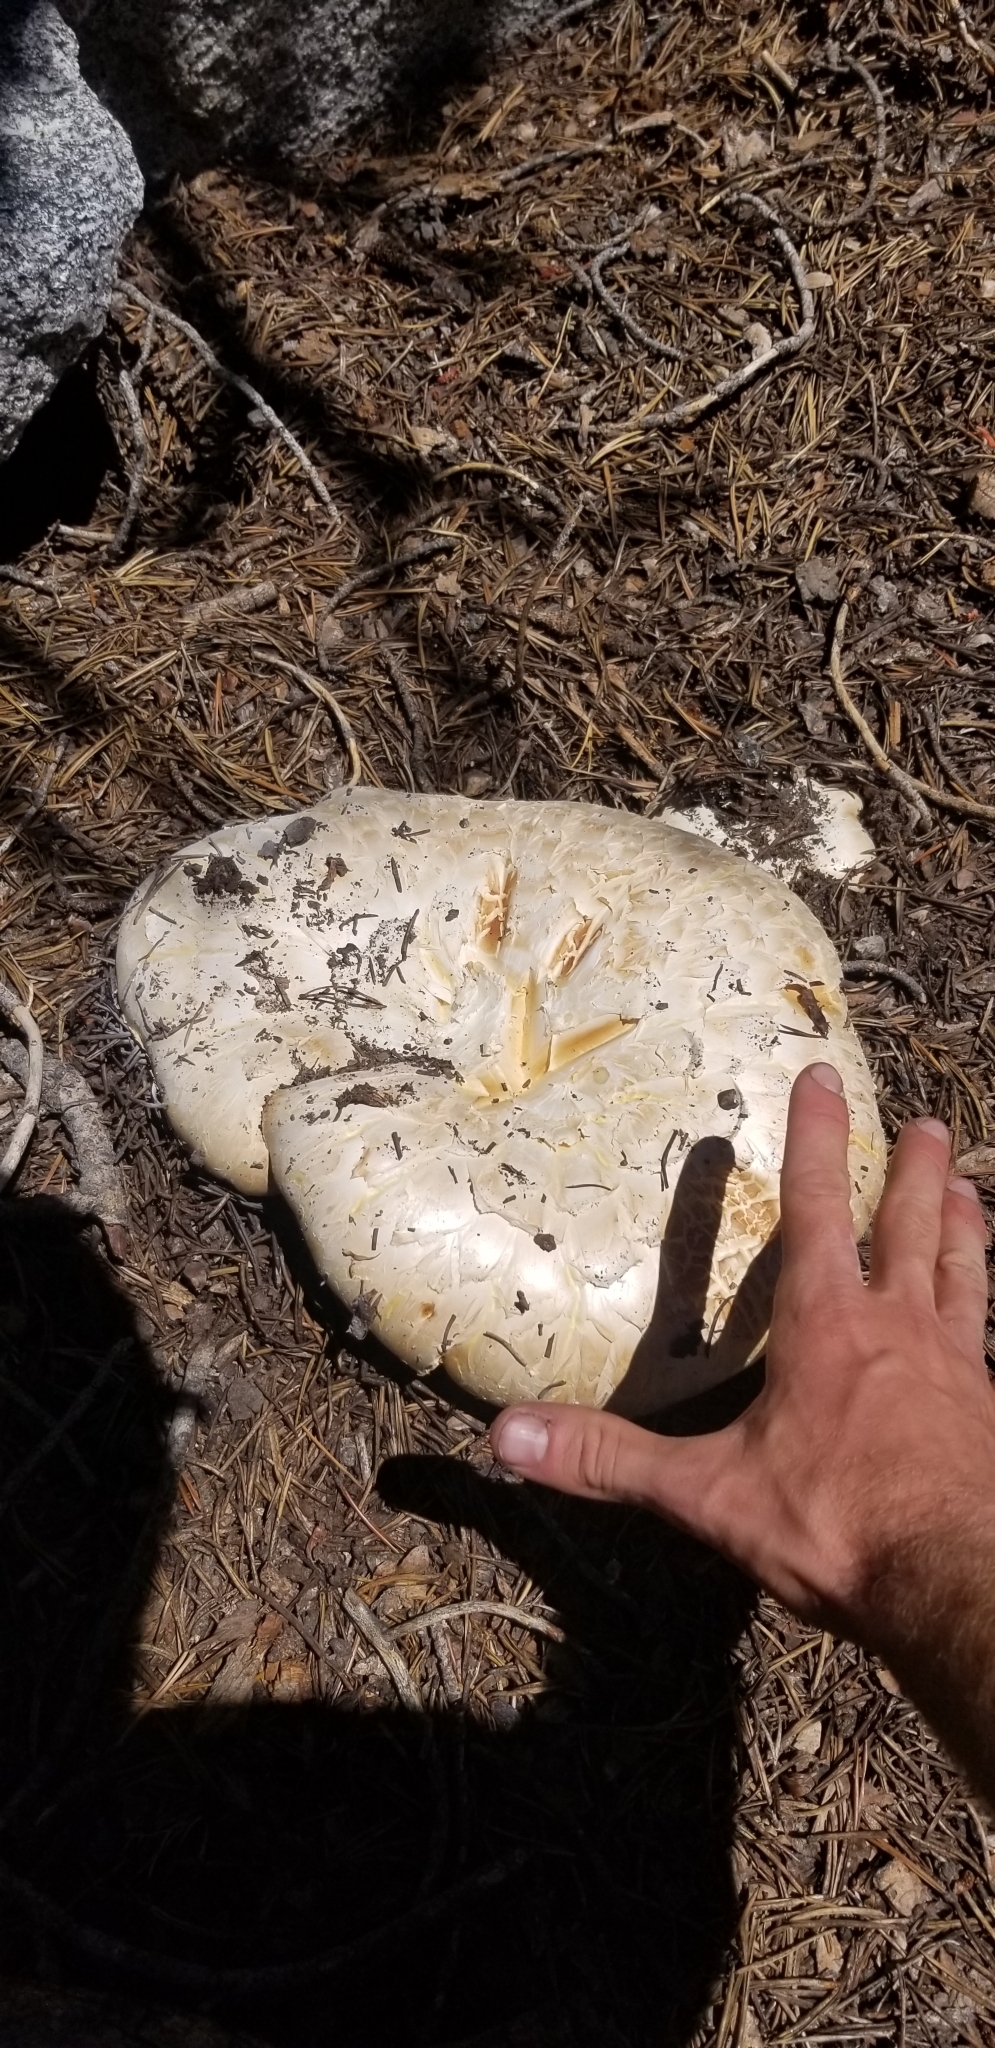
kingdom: Fungi
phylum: Basidiomycota
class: Agaricomycetes
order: Gloeophyllales
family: Gloeophyllaceae
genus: Neolentinus
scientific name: Neolentinus ponderosus
